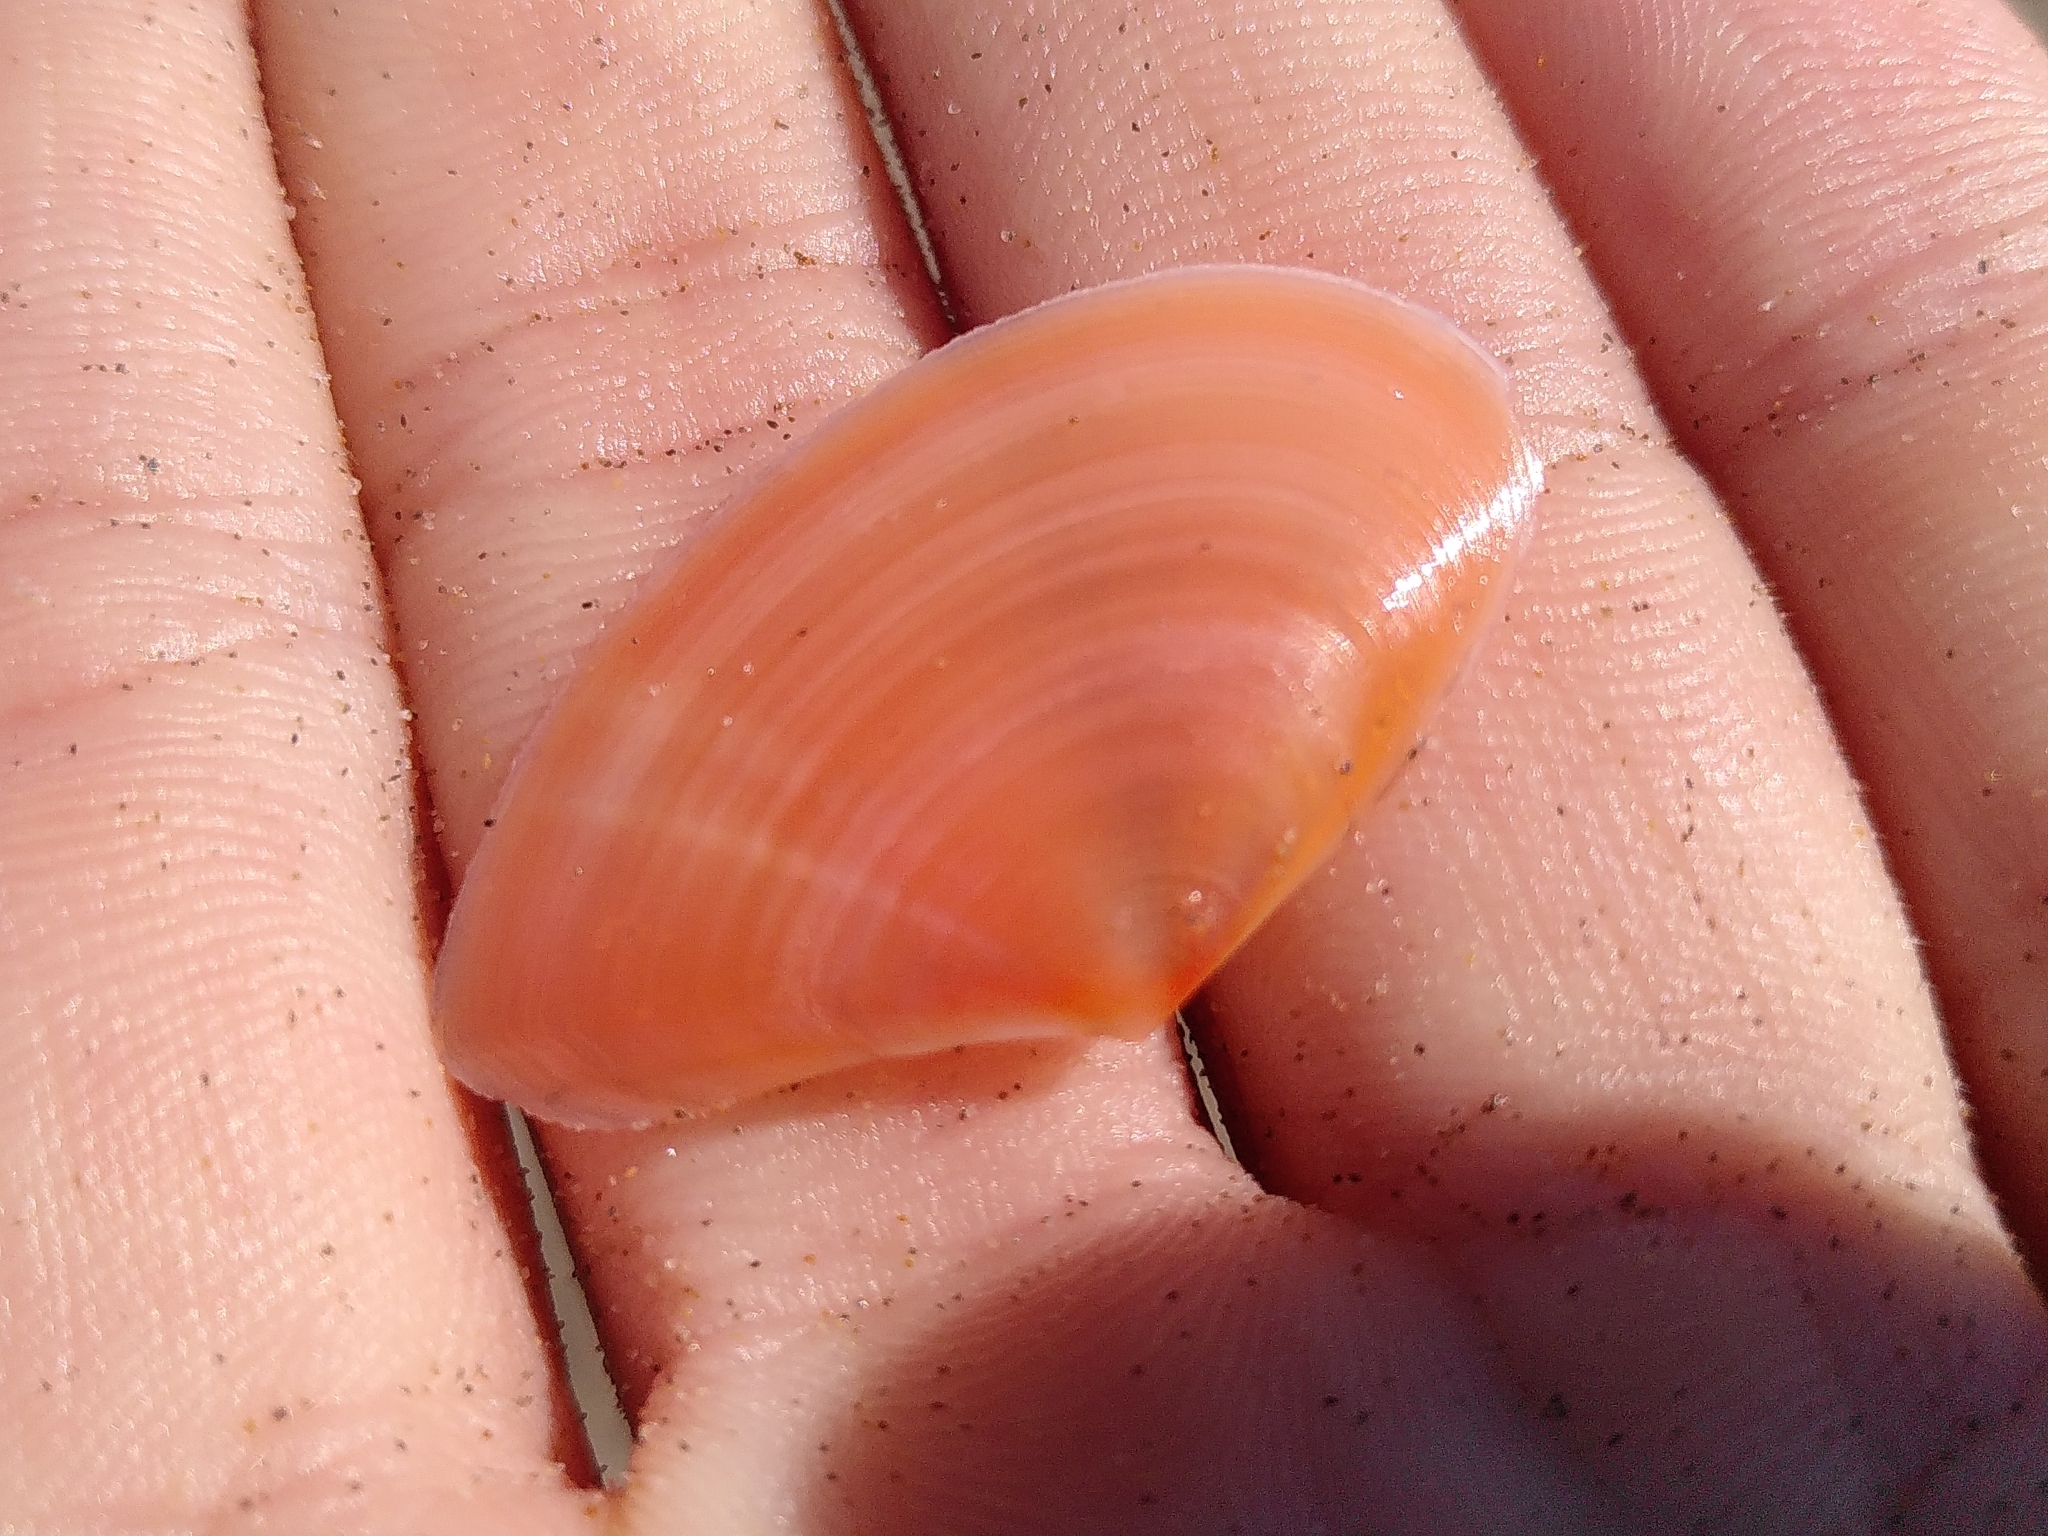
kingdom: Animalia
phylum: Mollusca
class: Bivalvia
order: Cardiida
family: Tellinidae
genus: Bosemprella
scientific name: Bosemprella incarnata
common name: Red tellin
